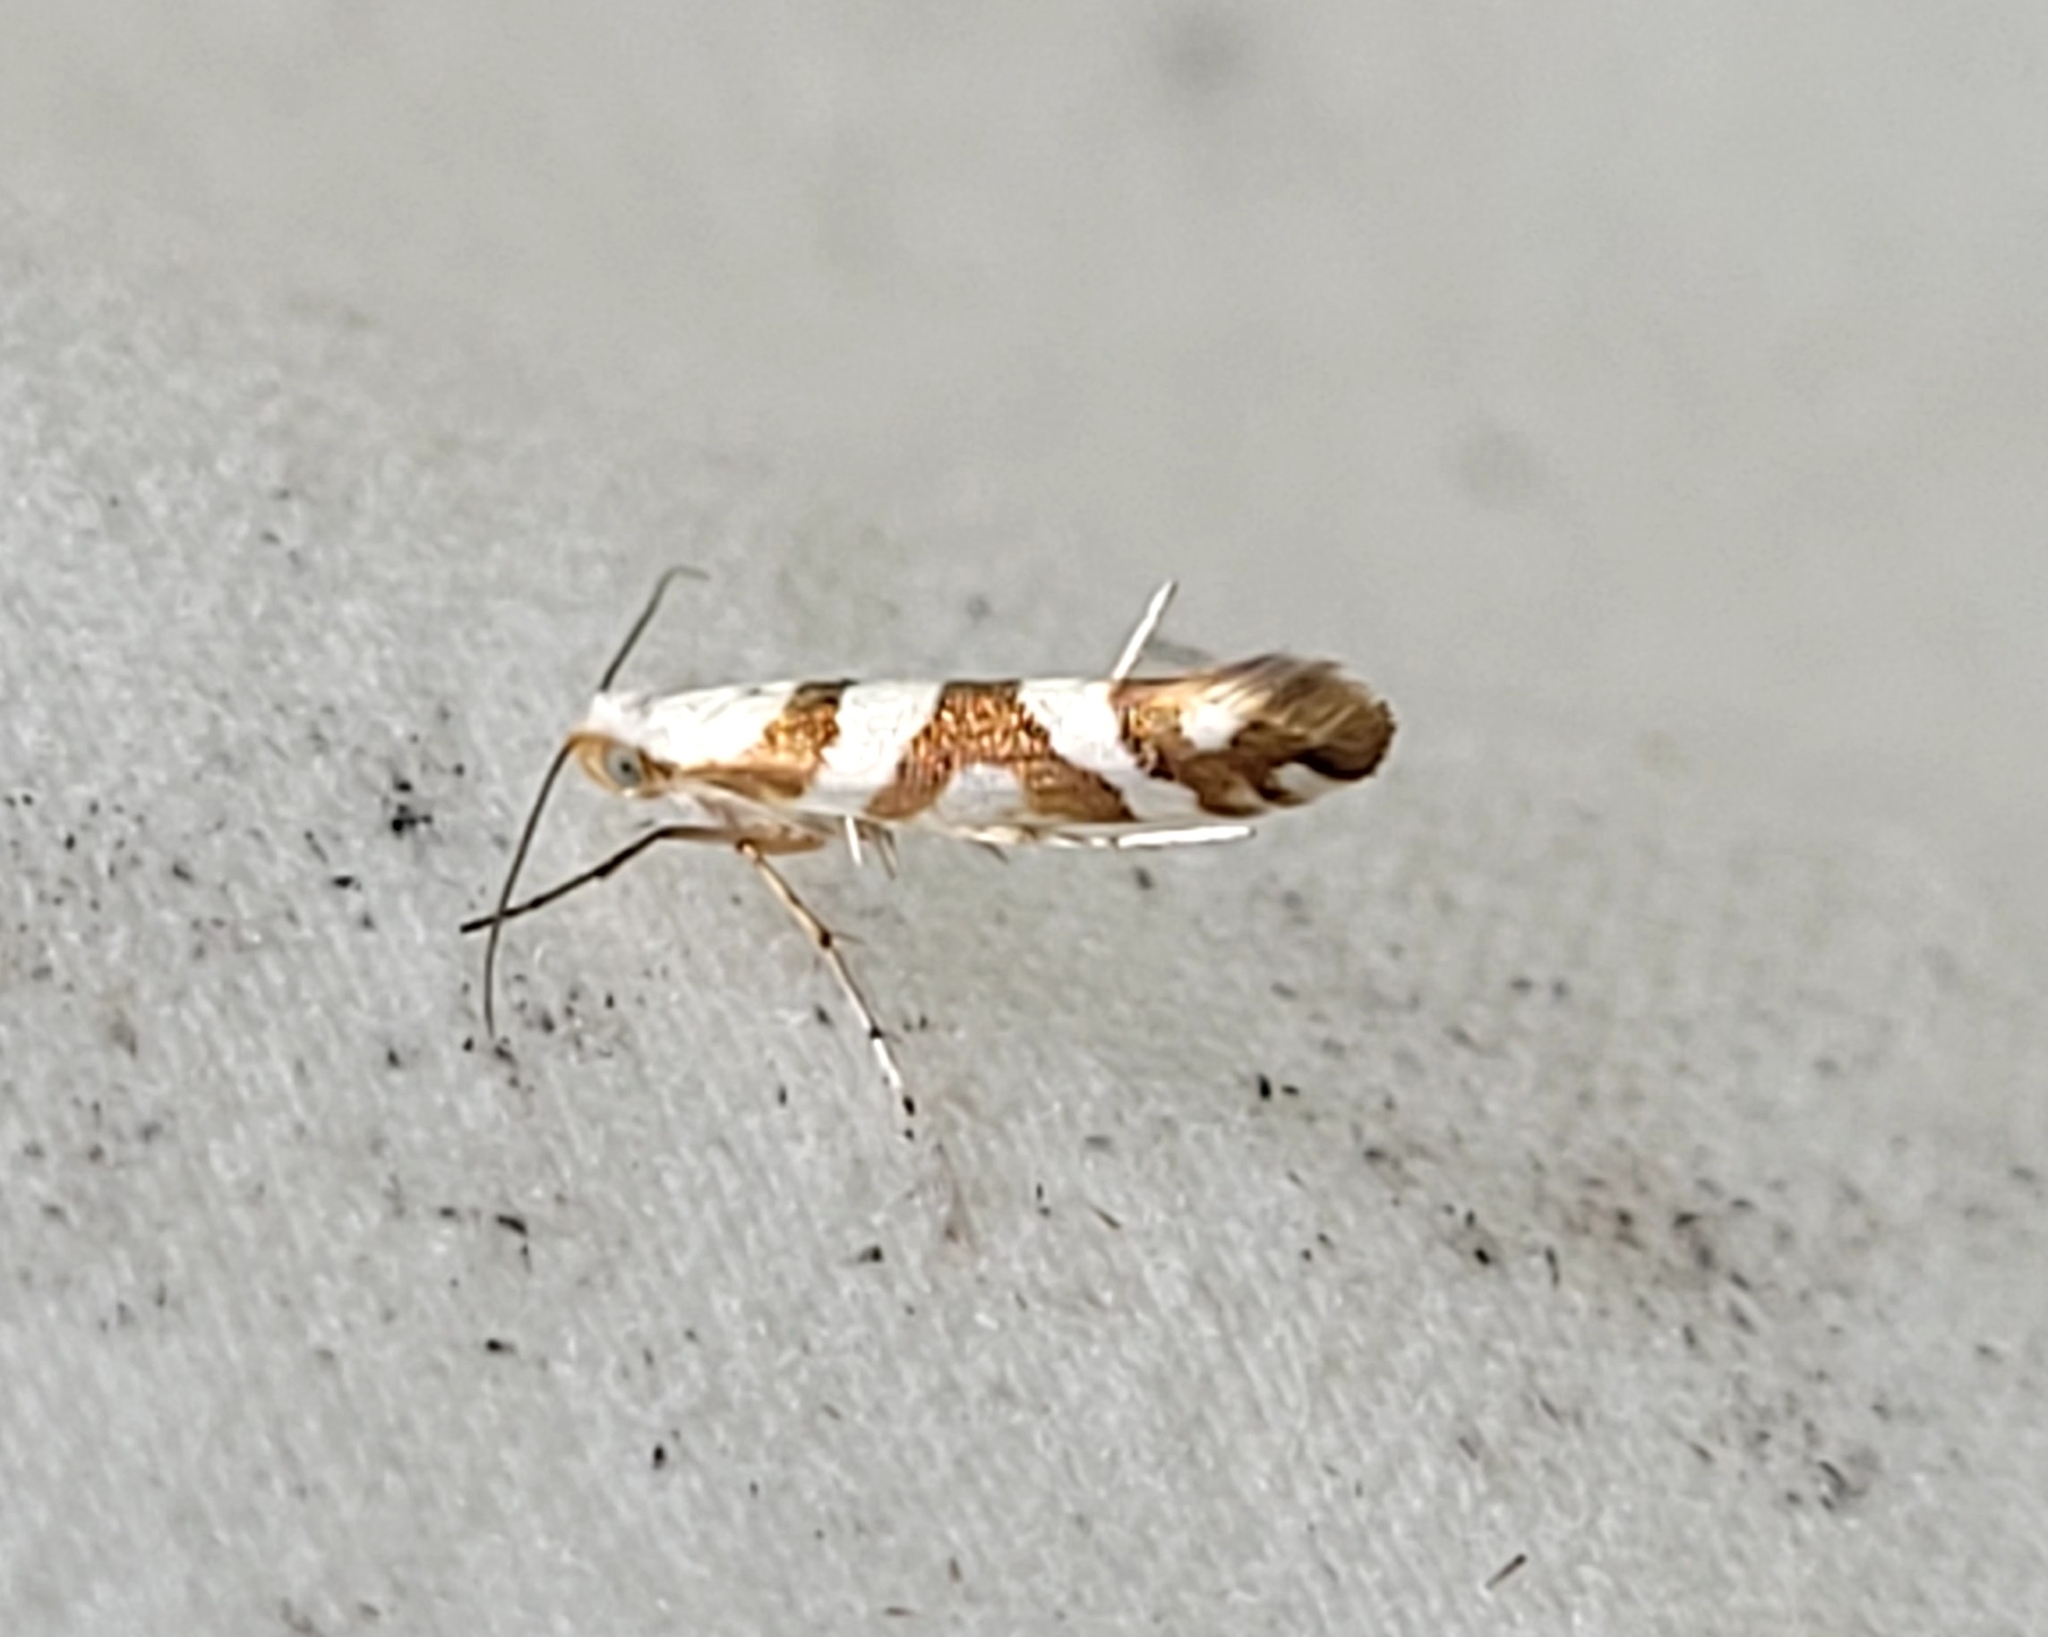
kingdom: Animalia
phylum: Arthropoda
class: Insecta
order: Lepidoptera
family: Argyresthiidae
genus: Argyresthia
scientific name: Argyresthia calliphanes
